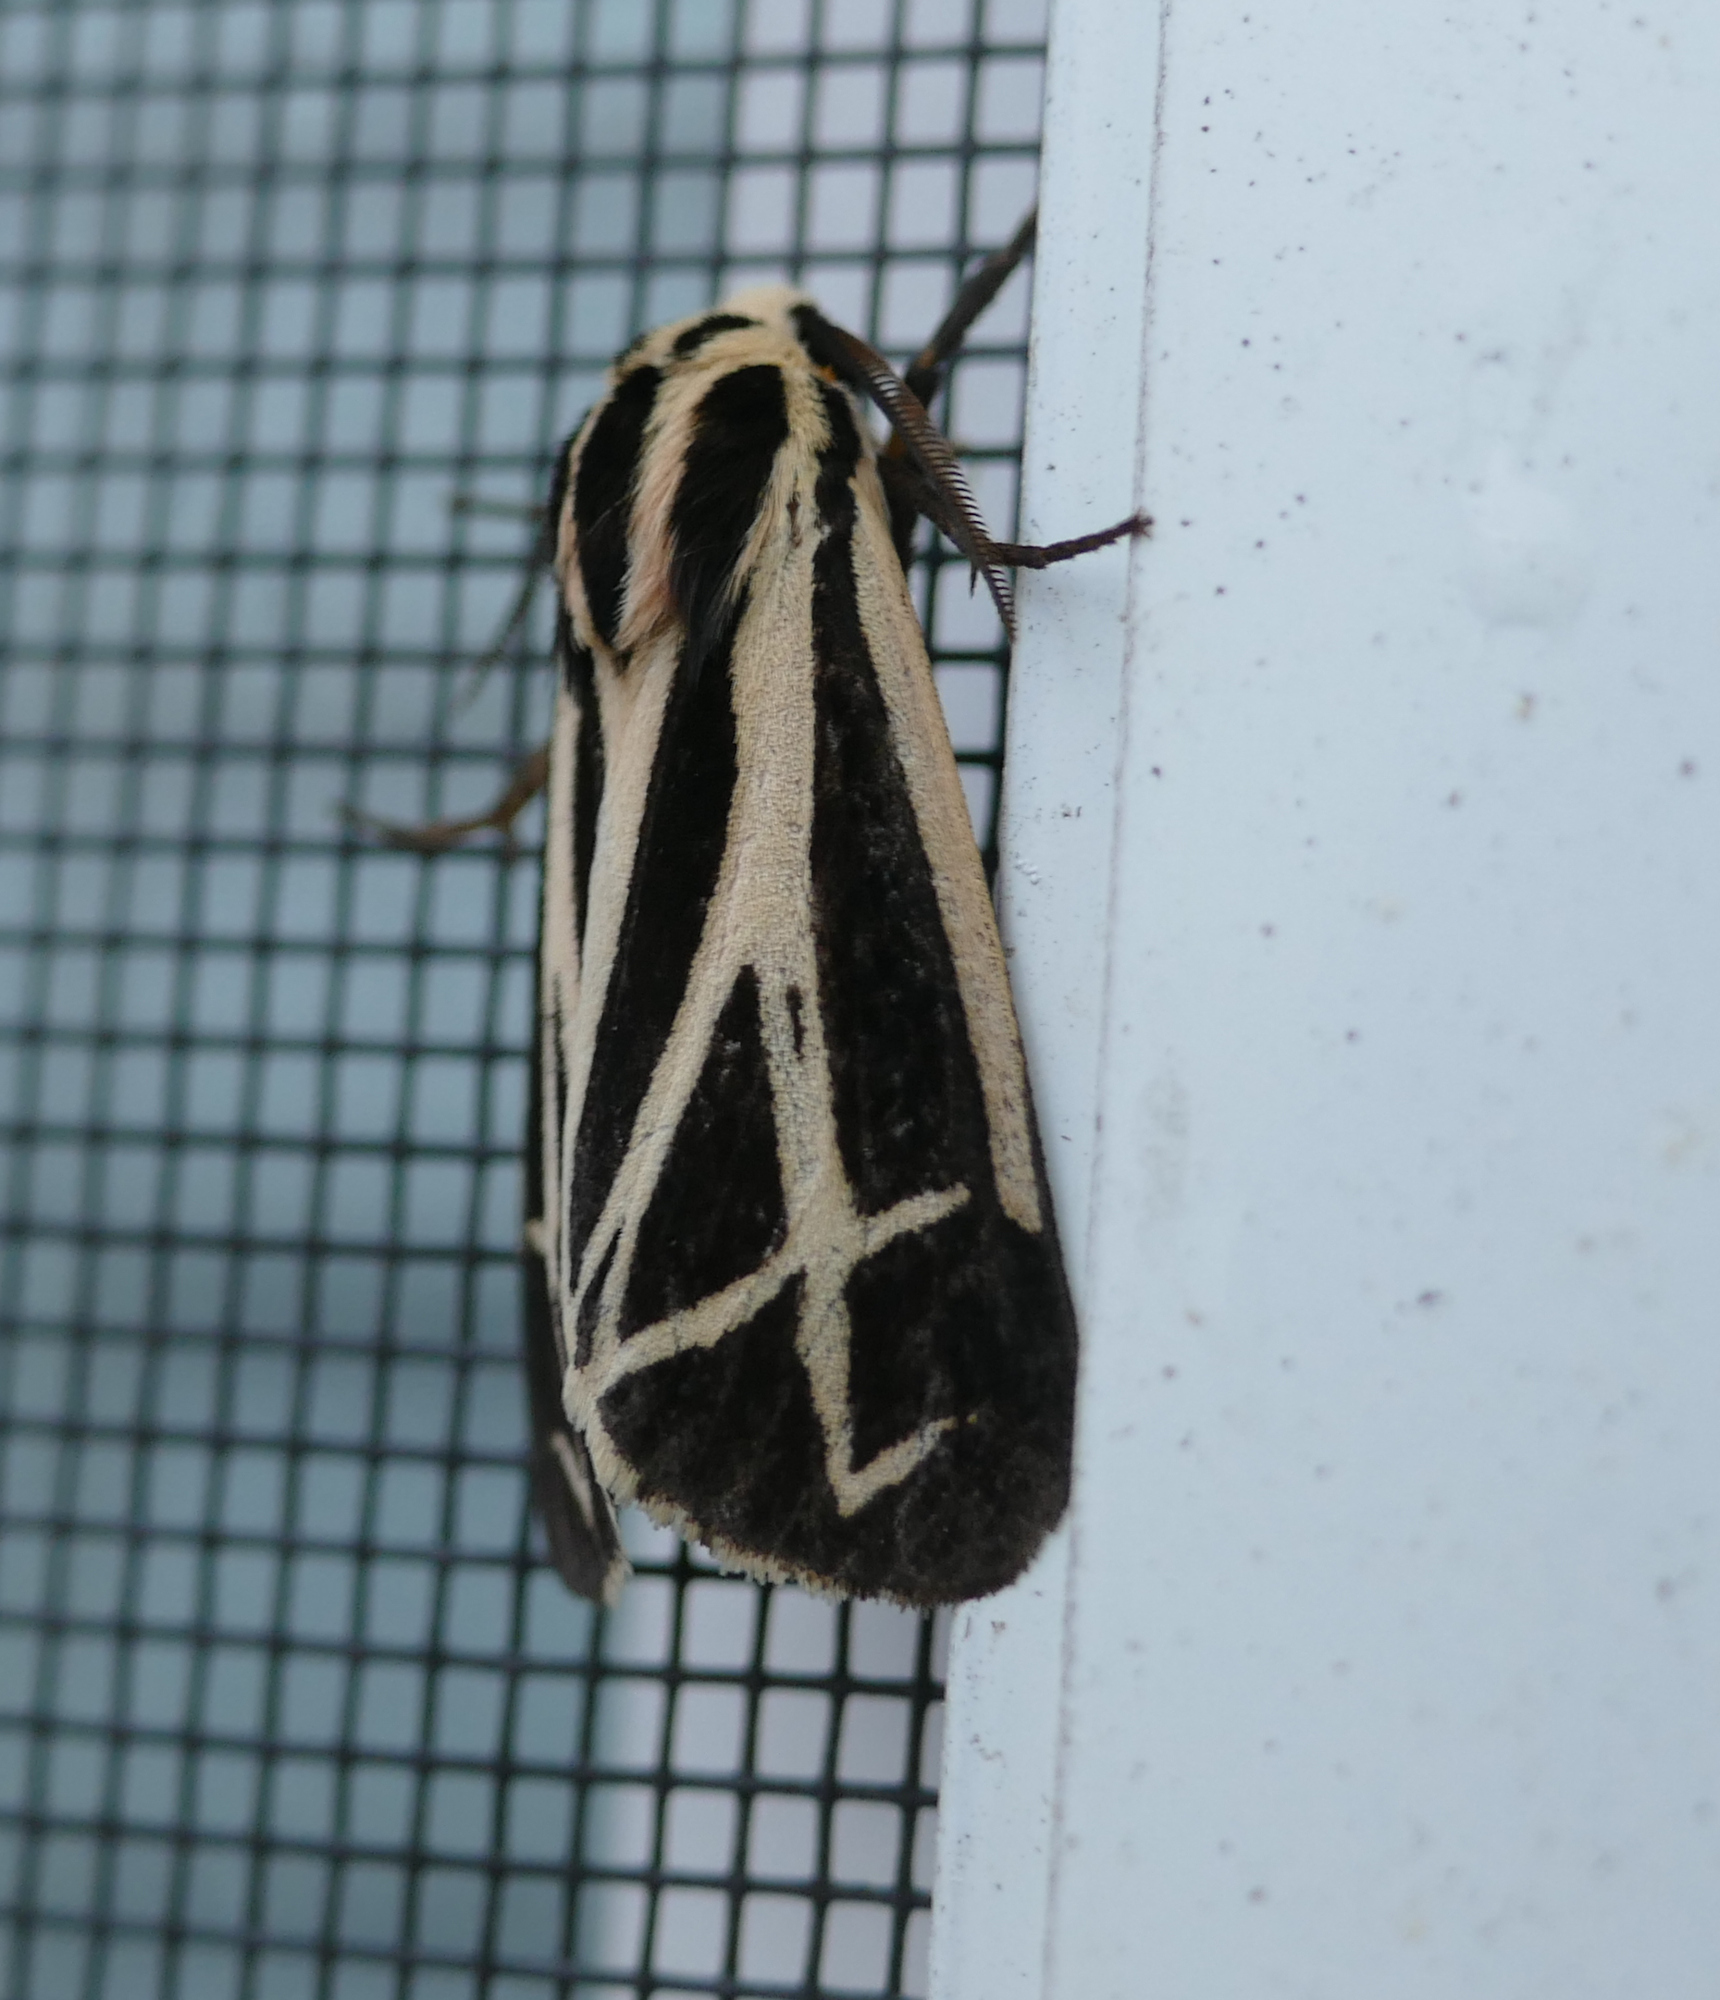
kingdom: Animalia
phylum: Arthropoda
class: Insecta
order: Lepidoptera
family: Erebidae
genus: Apantesis
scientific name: Apantesis phalerata
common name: Harnessed tiger moth
